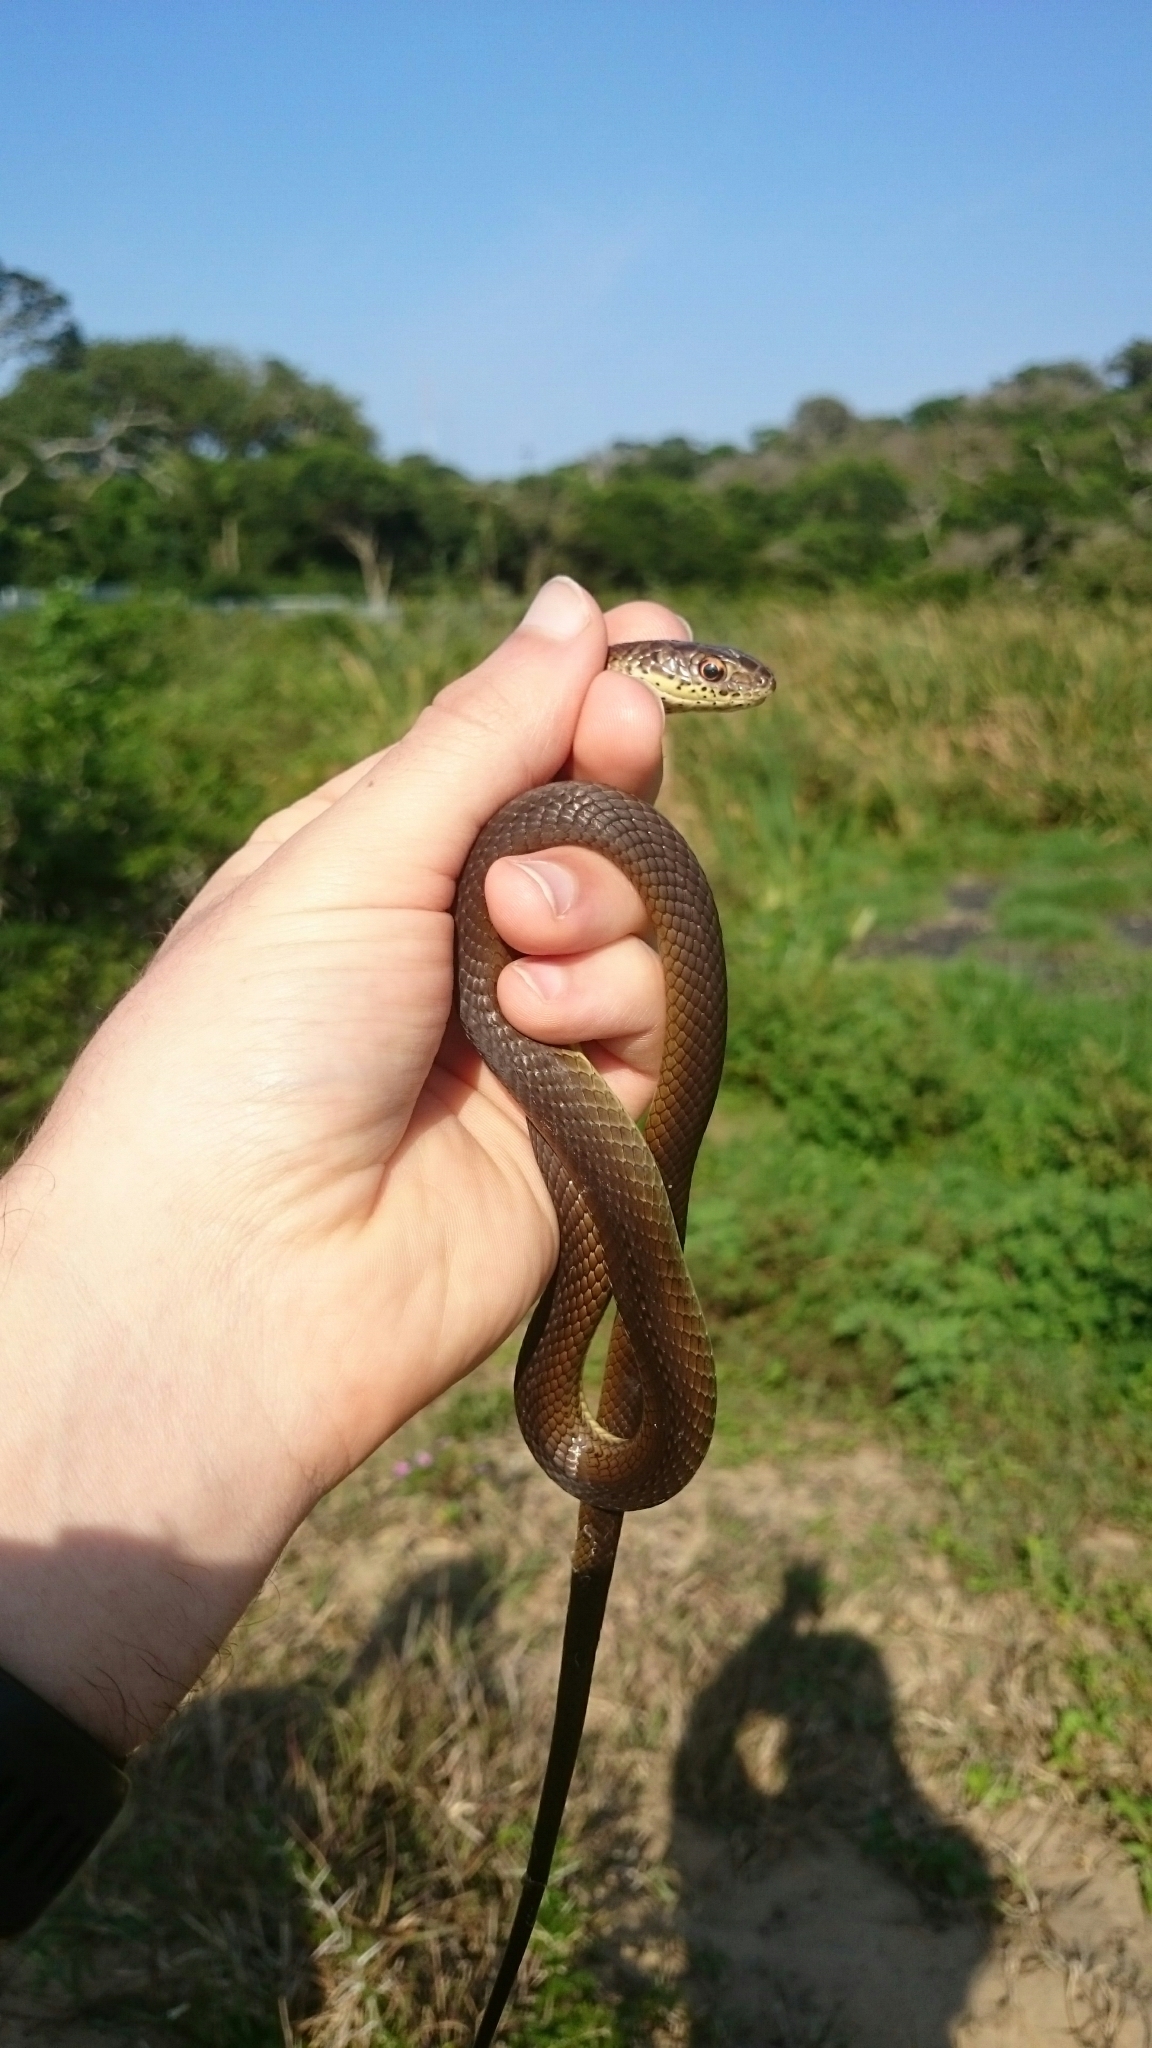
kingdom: Animalia
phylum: Chordata
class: Squamata
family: Psammophiidae
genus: Psammophis
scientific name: Psammophis mossambicus
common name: Olive grass snake
